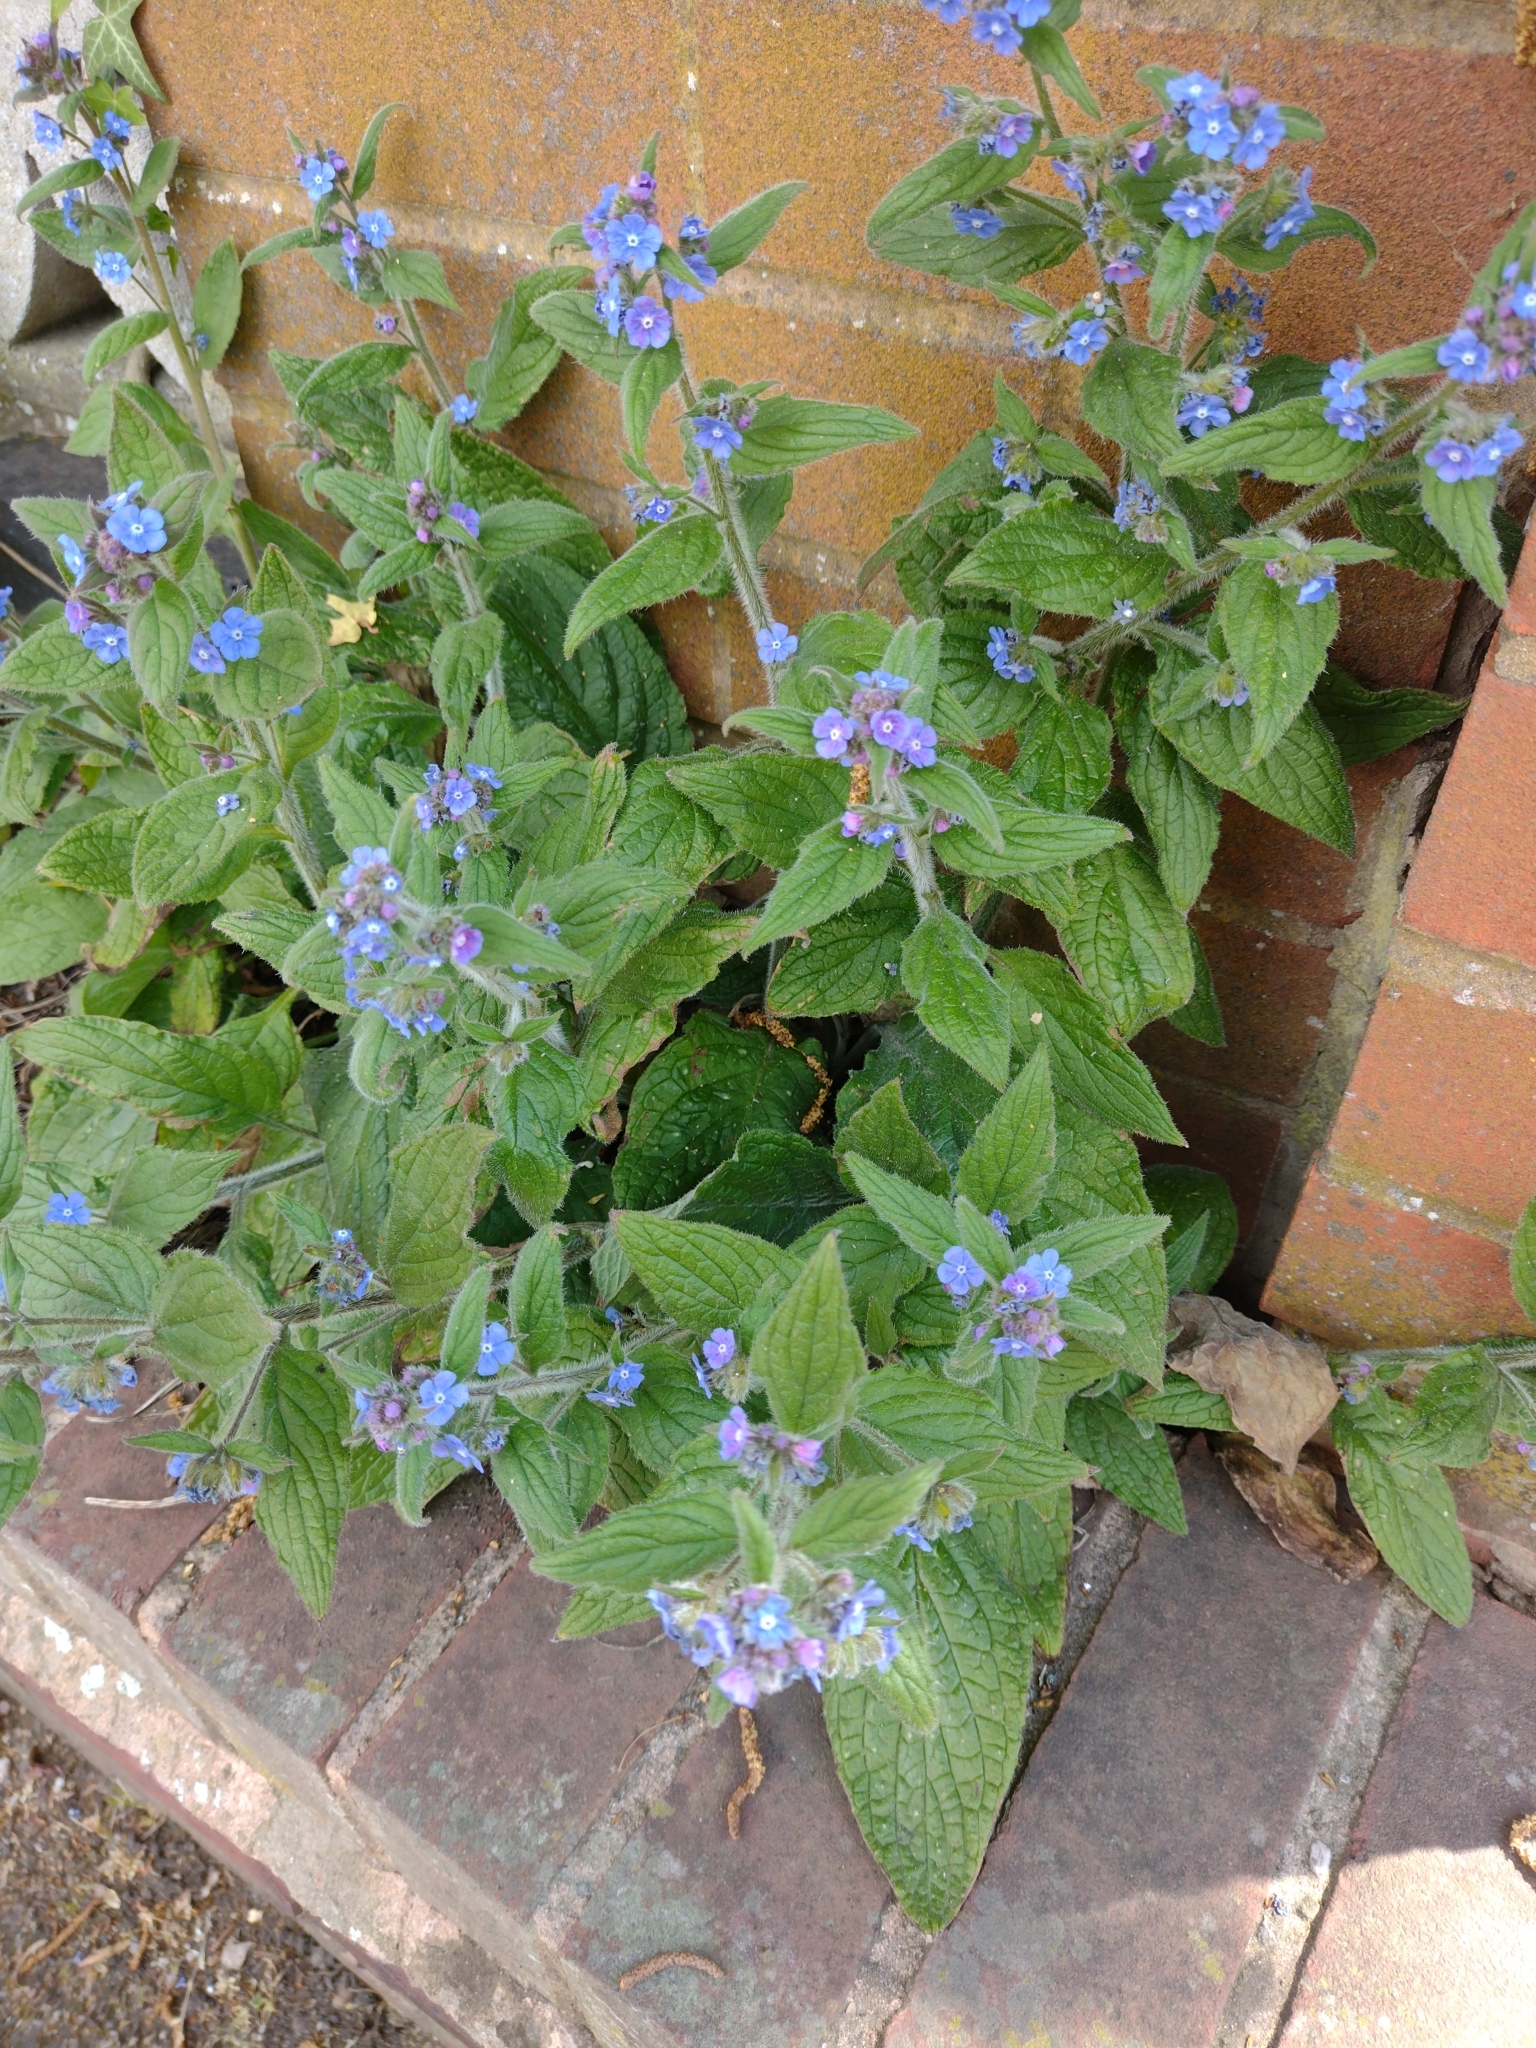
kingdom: Plantae
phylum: Tracheophyta
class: Magnoliopsida
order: Boraginales
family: Boraginaceae
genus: Pentaglottis
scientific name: Pentaglottis sempervirens
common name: Green alkanet
